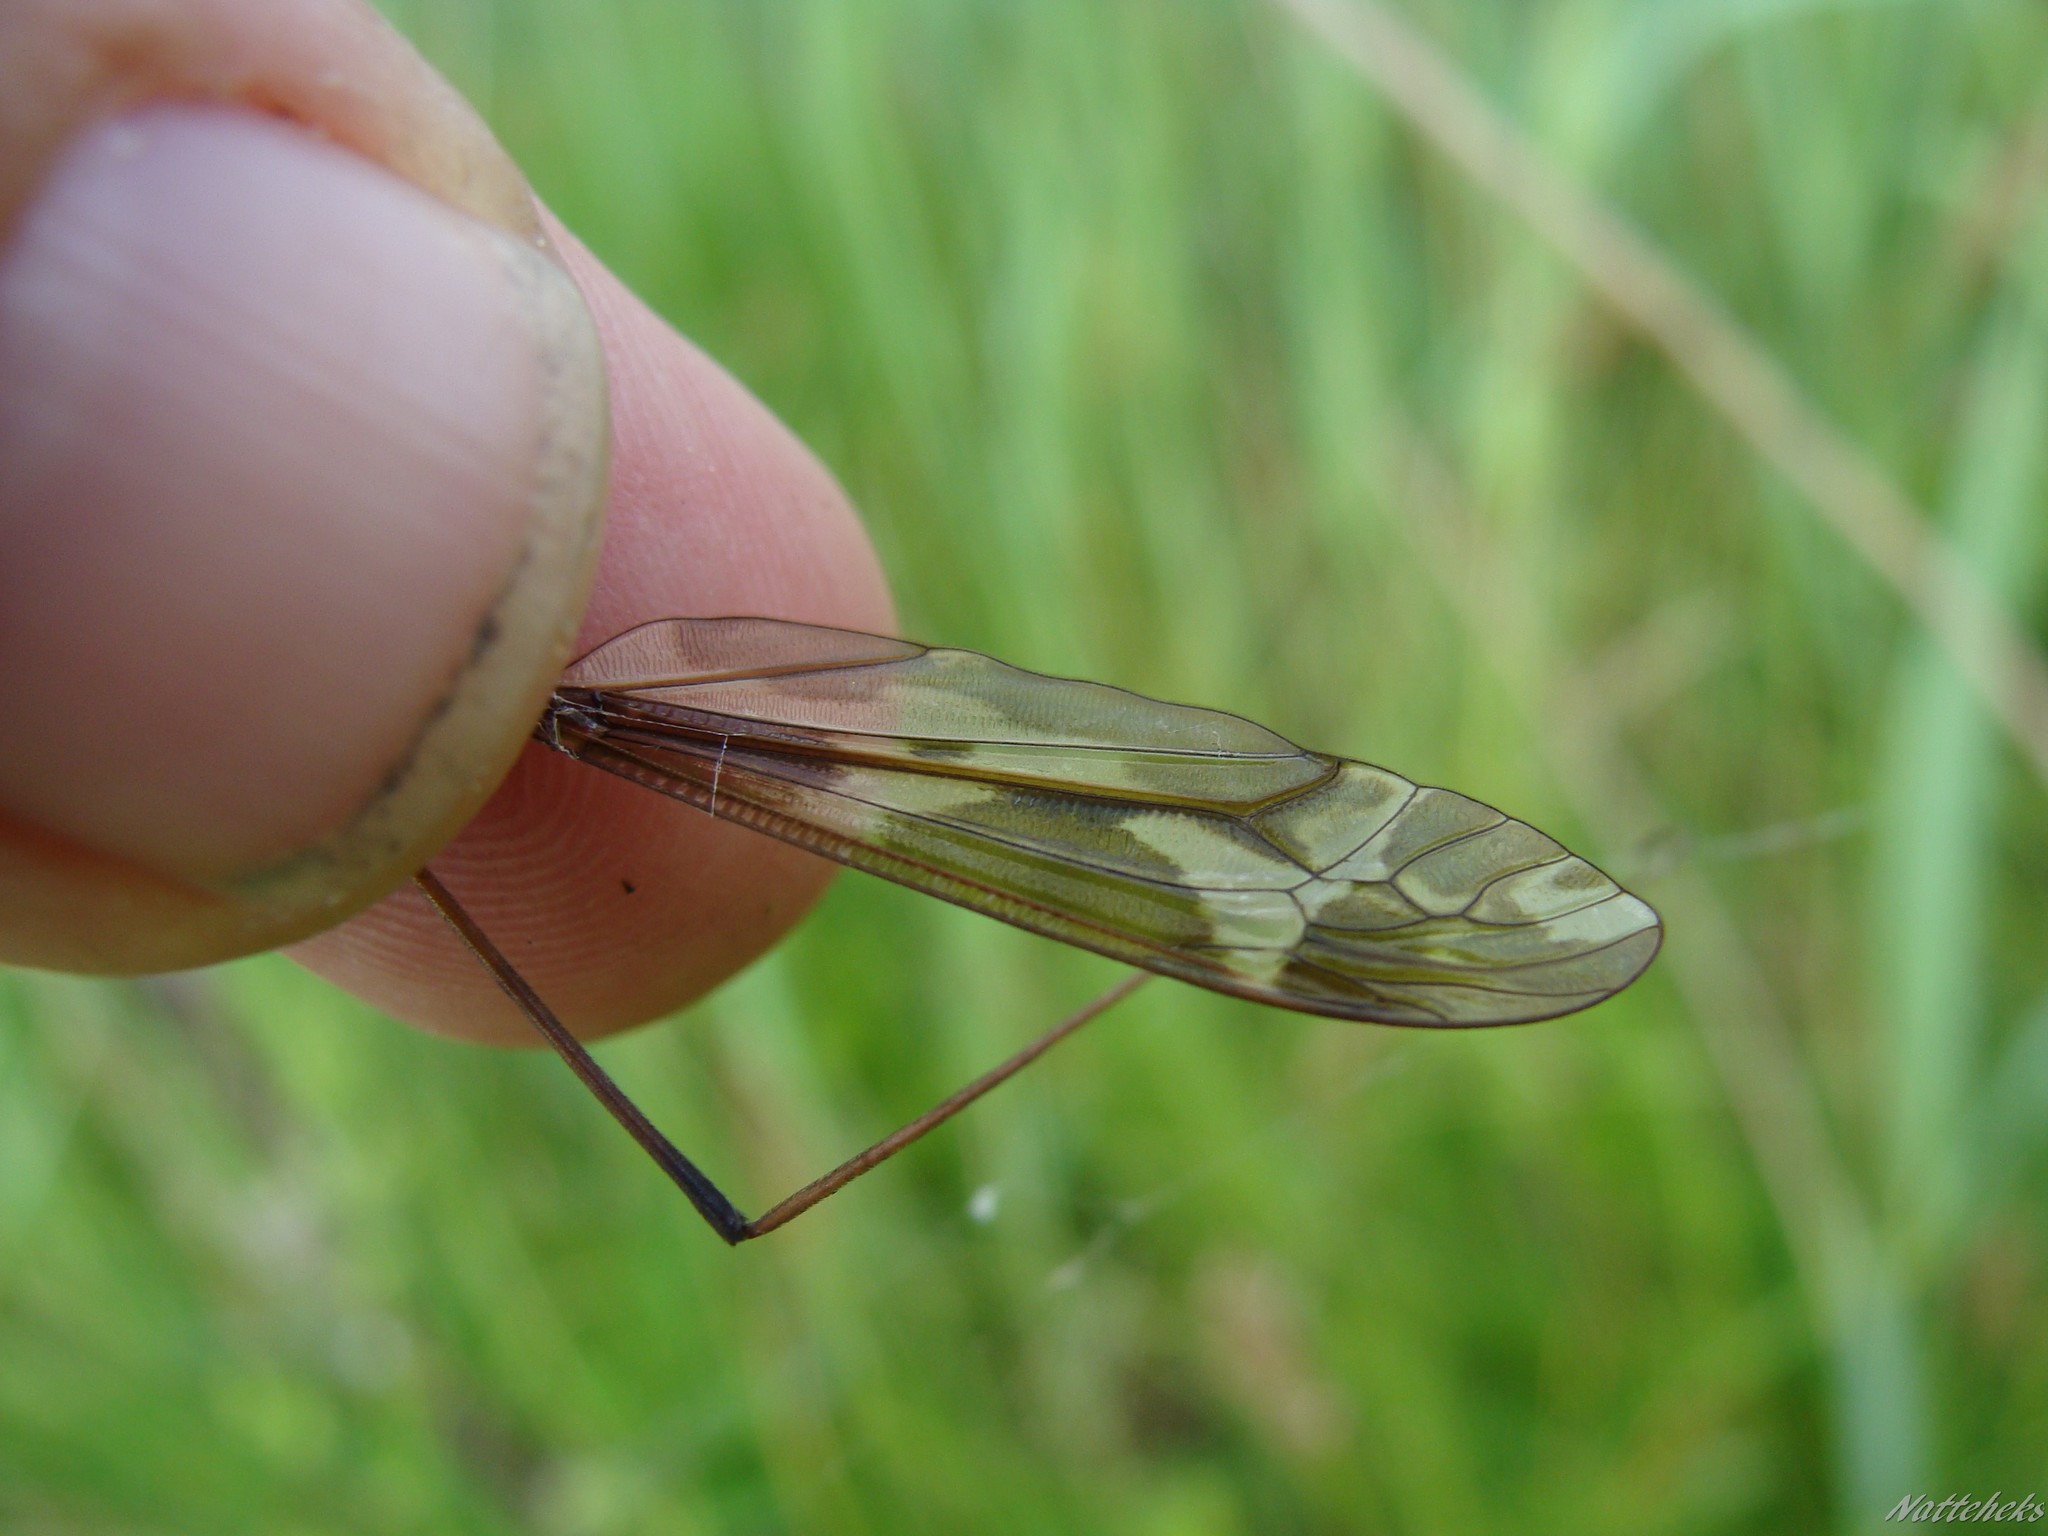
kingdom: Animalia
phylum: Arthropoda
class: Insecta
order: Diptera
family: Tipulidae
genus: Tipula
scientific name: Tipula maxima
